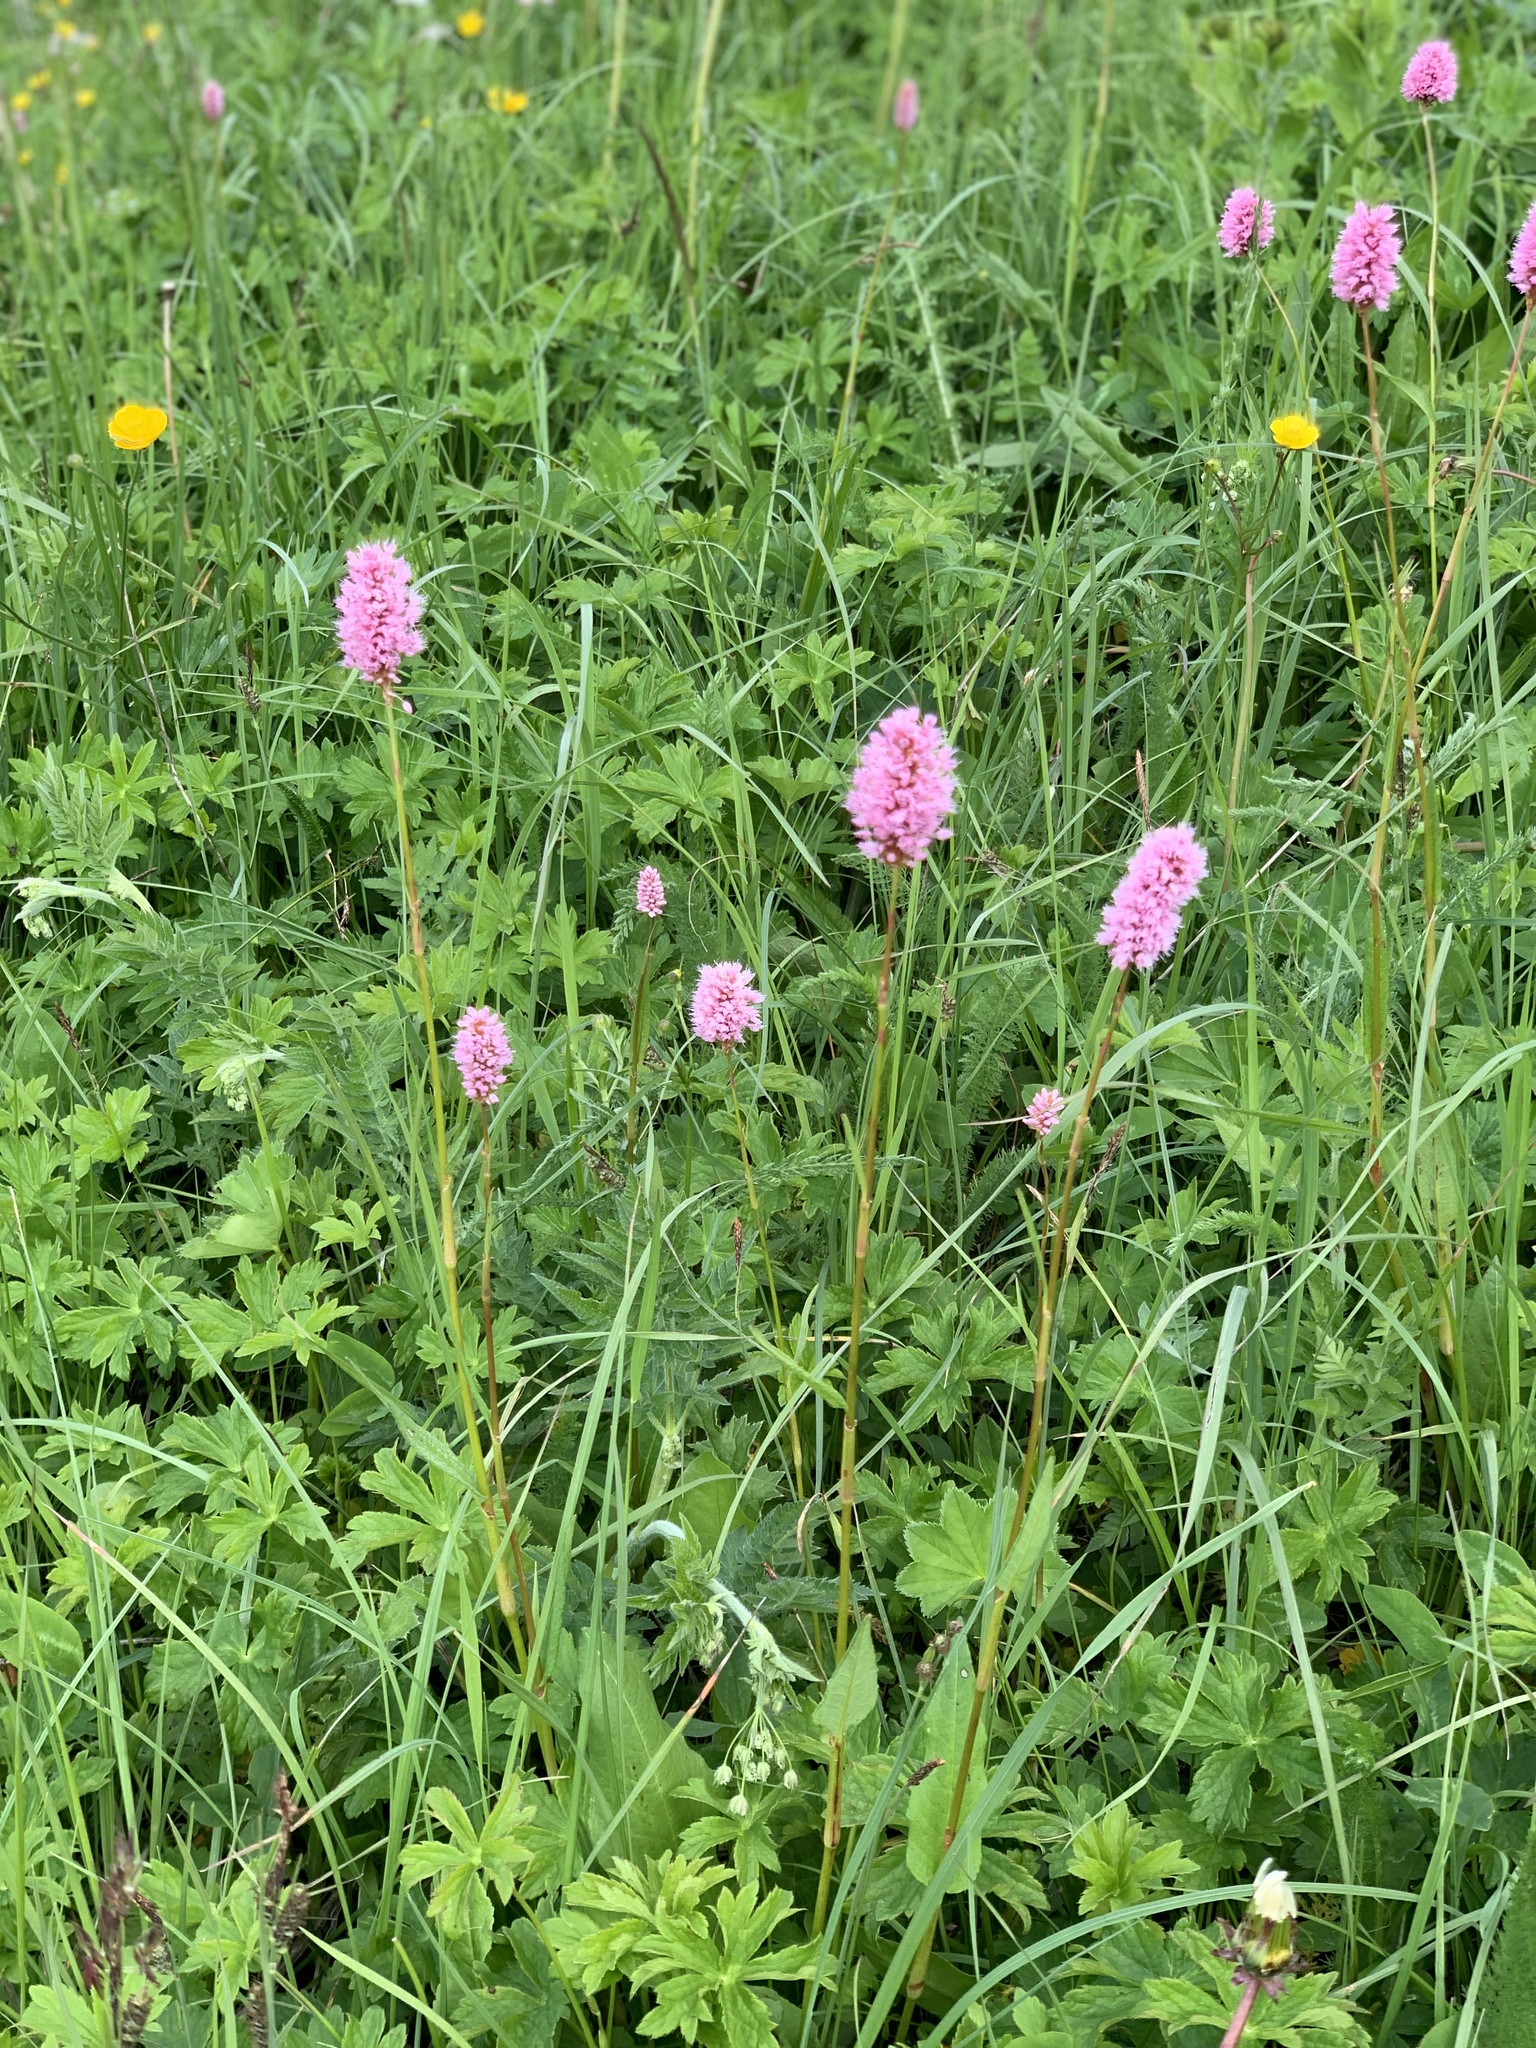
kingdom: Plantae
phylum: Tracheophyta
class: Magnoliopsida
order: Caryophyllales
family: Polygonaceae
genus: Bistorta
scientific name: Bistorta carnea
